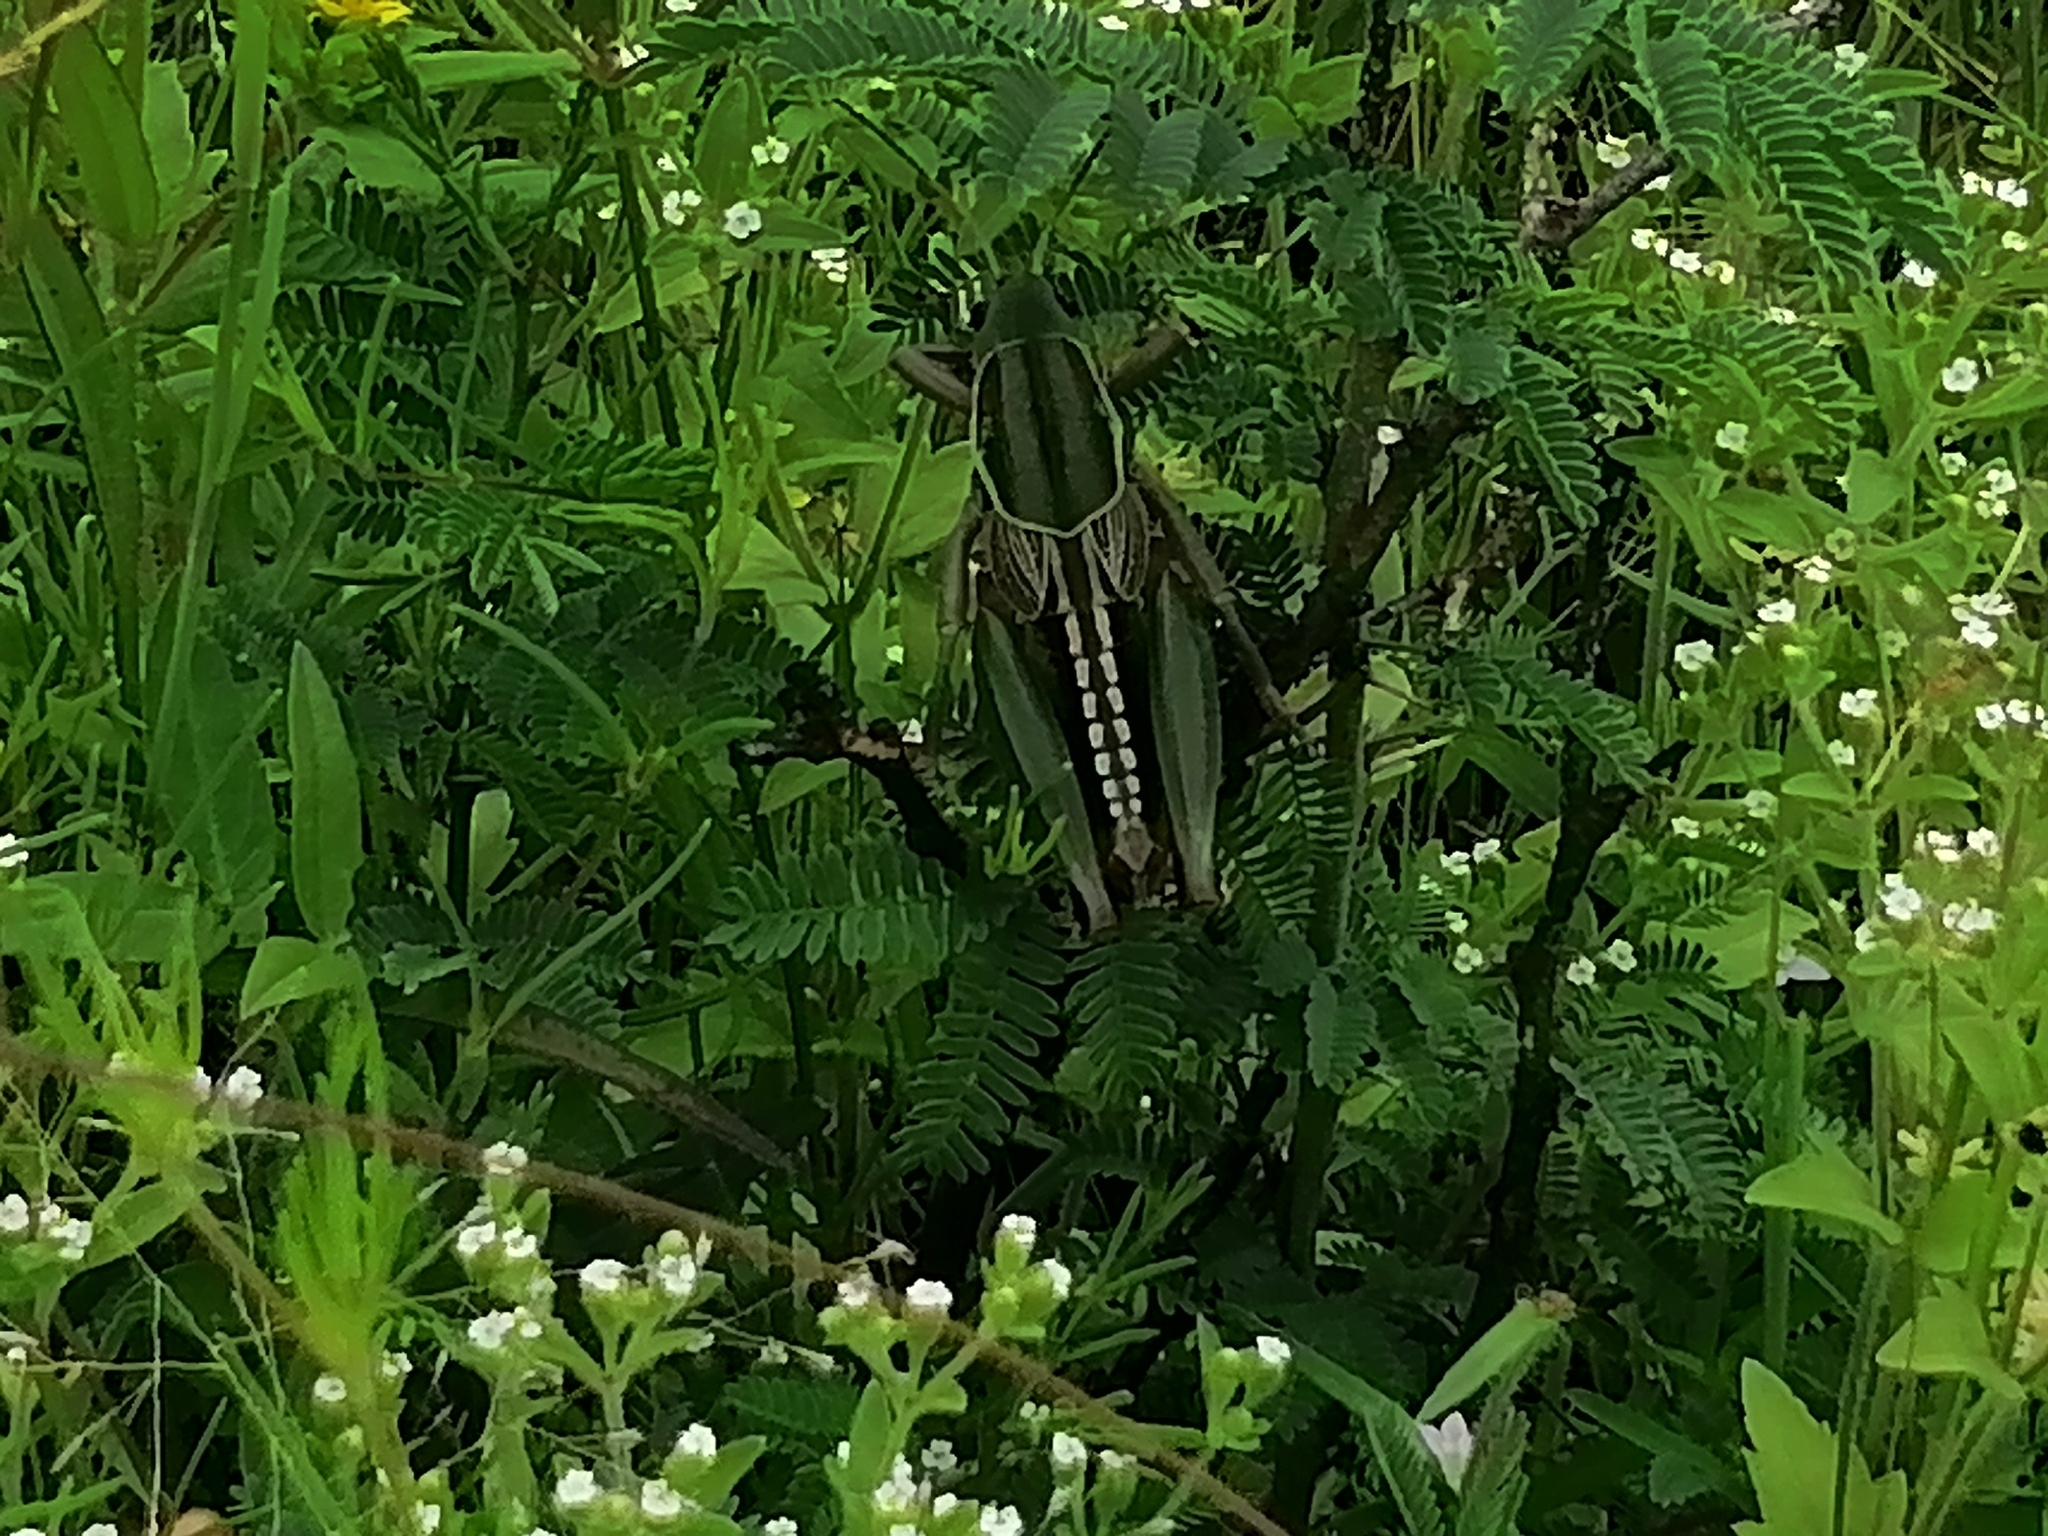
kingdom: Animalia
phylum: Arthropoda
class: Insecta
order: Orthoptera
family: Romaleidae
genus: Brachystola
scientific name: Brachystola eiseni
